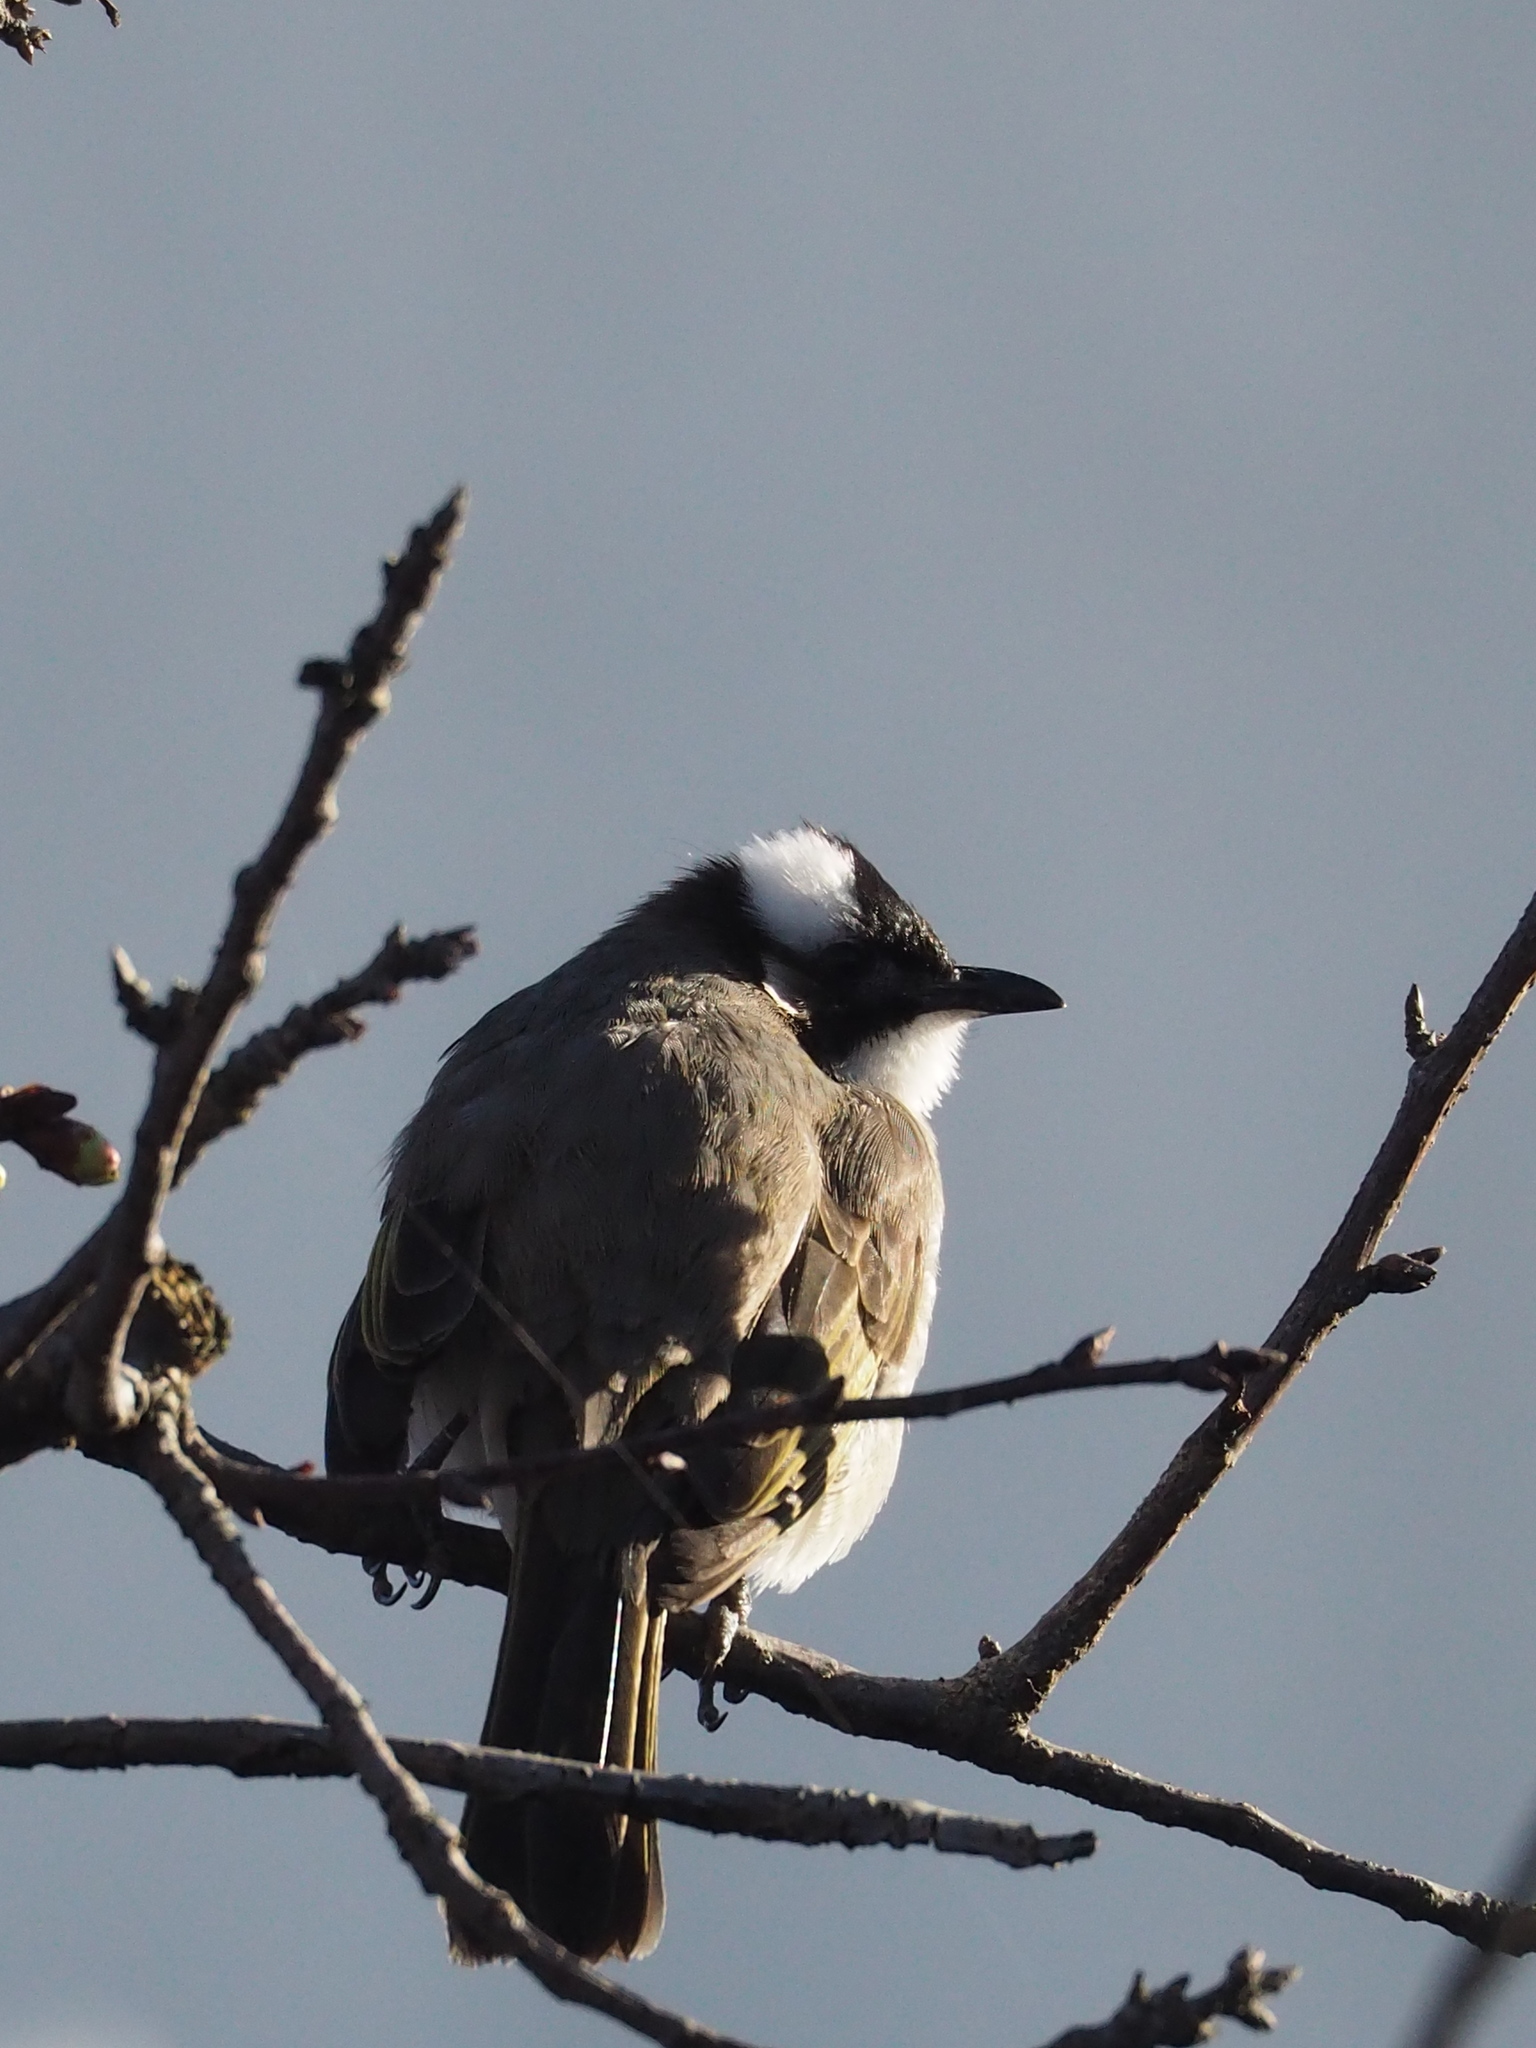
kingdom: Animalia
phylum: Chordata
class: Aves
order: Passeriformes
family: Pycnonotidae
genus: Pycnonotus
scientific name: Pycnonotus sinensis
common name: Light-vented bulbul
